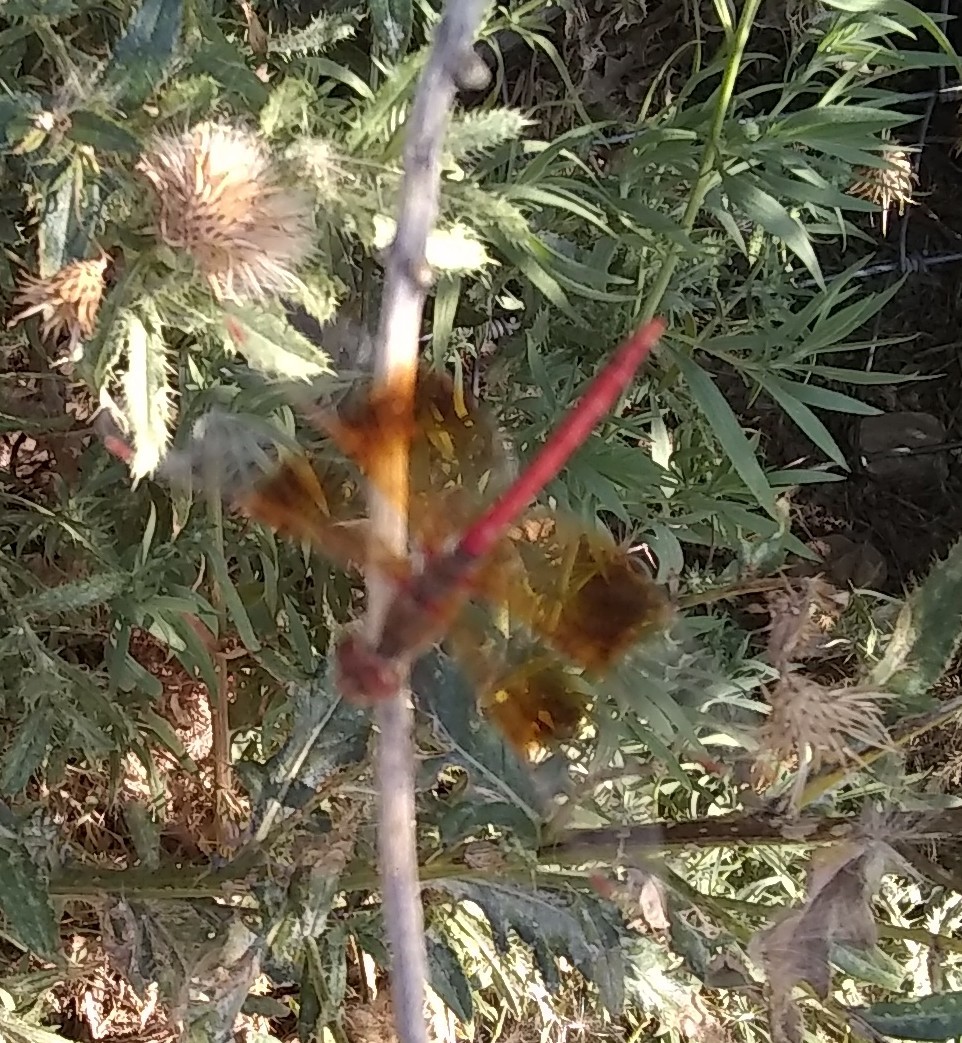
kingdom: Animalia
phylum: Arthropoda
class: Insecta
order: Odonata
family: Libellulidae
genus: Sympetrum
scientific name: Sympetrum semicinctum
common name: Band-winged meadowhawk
